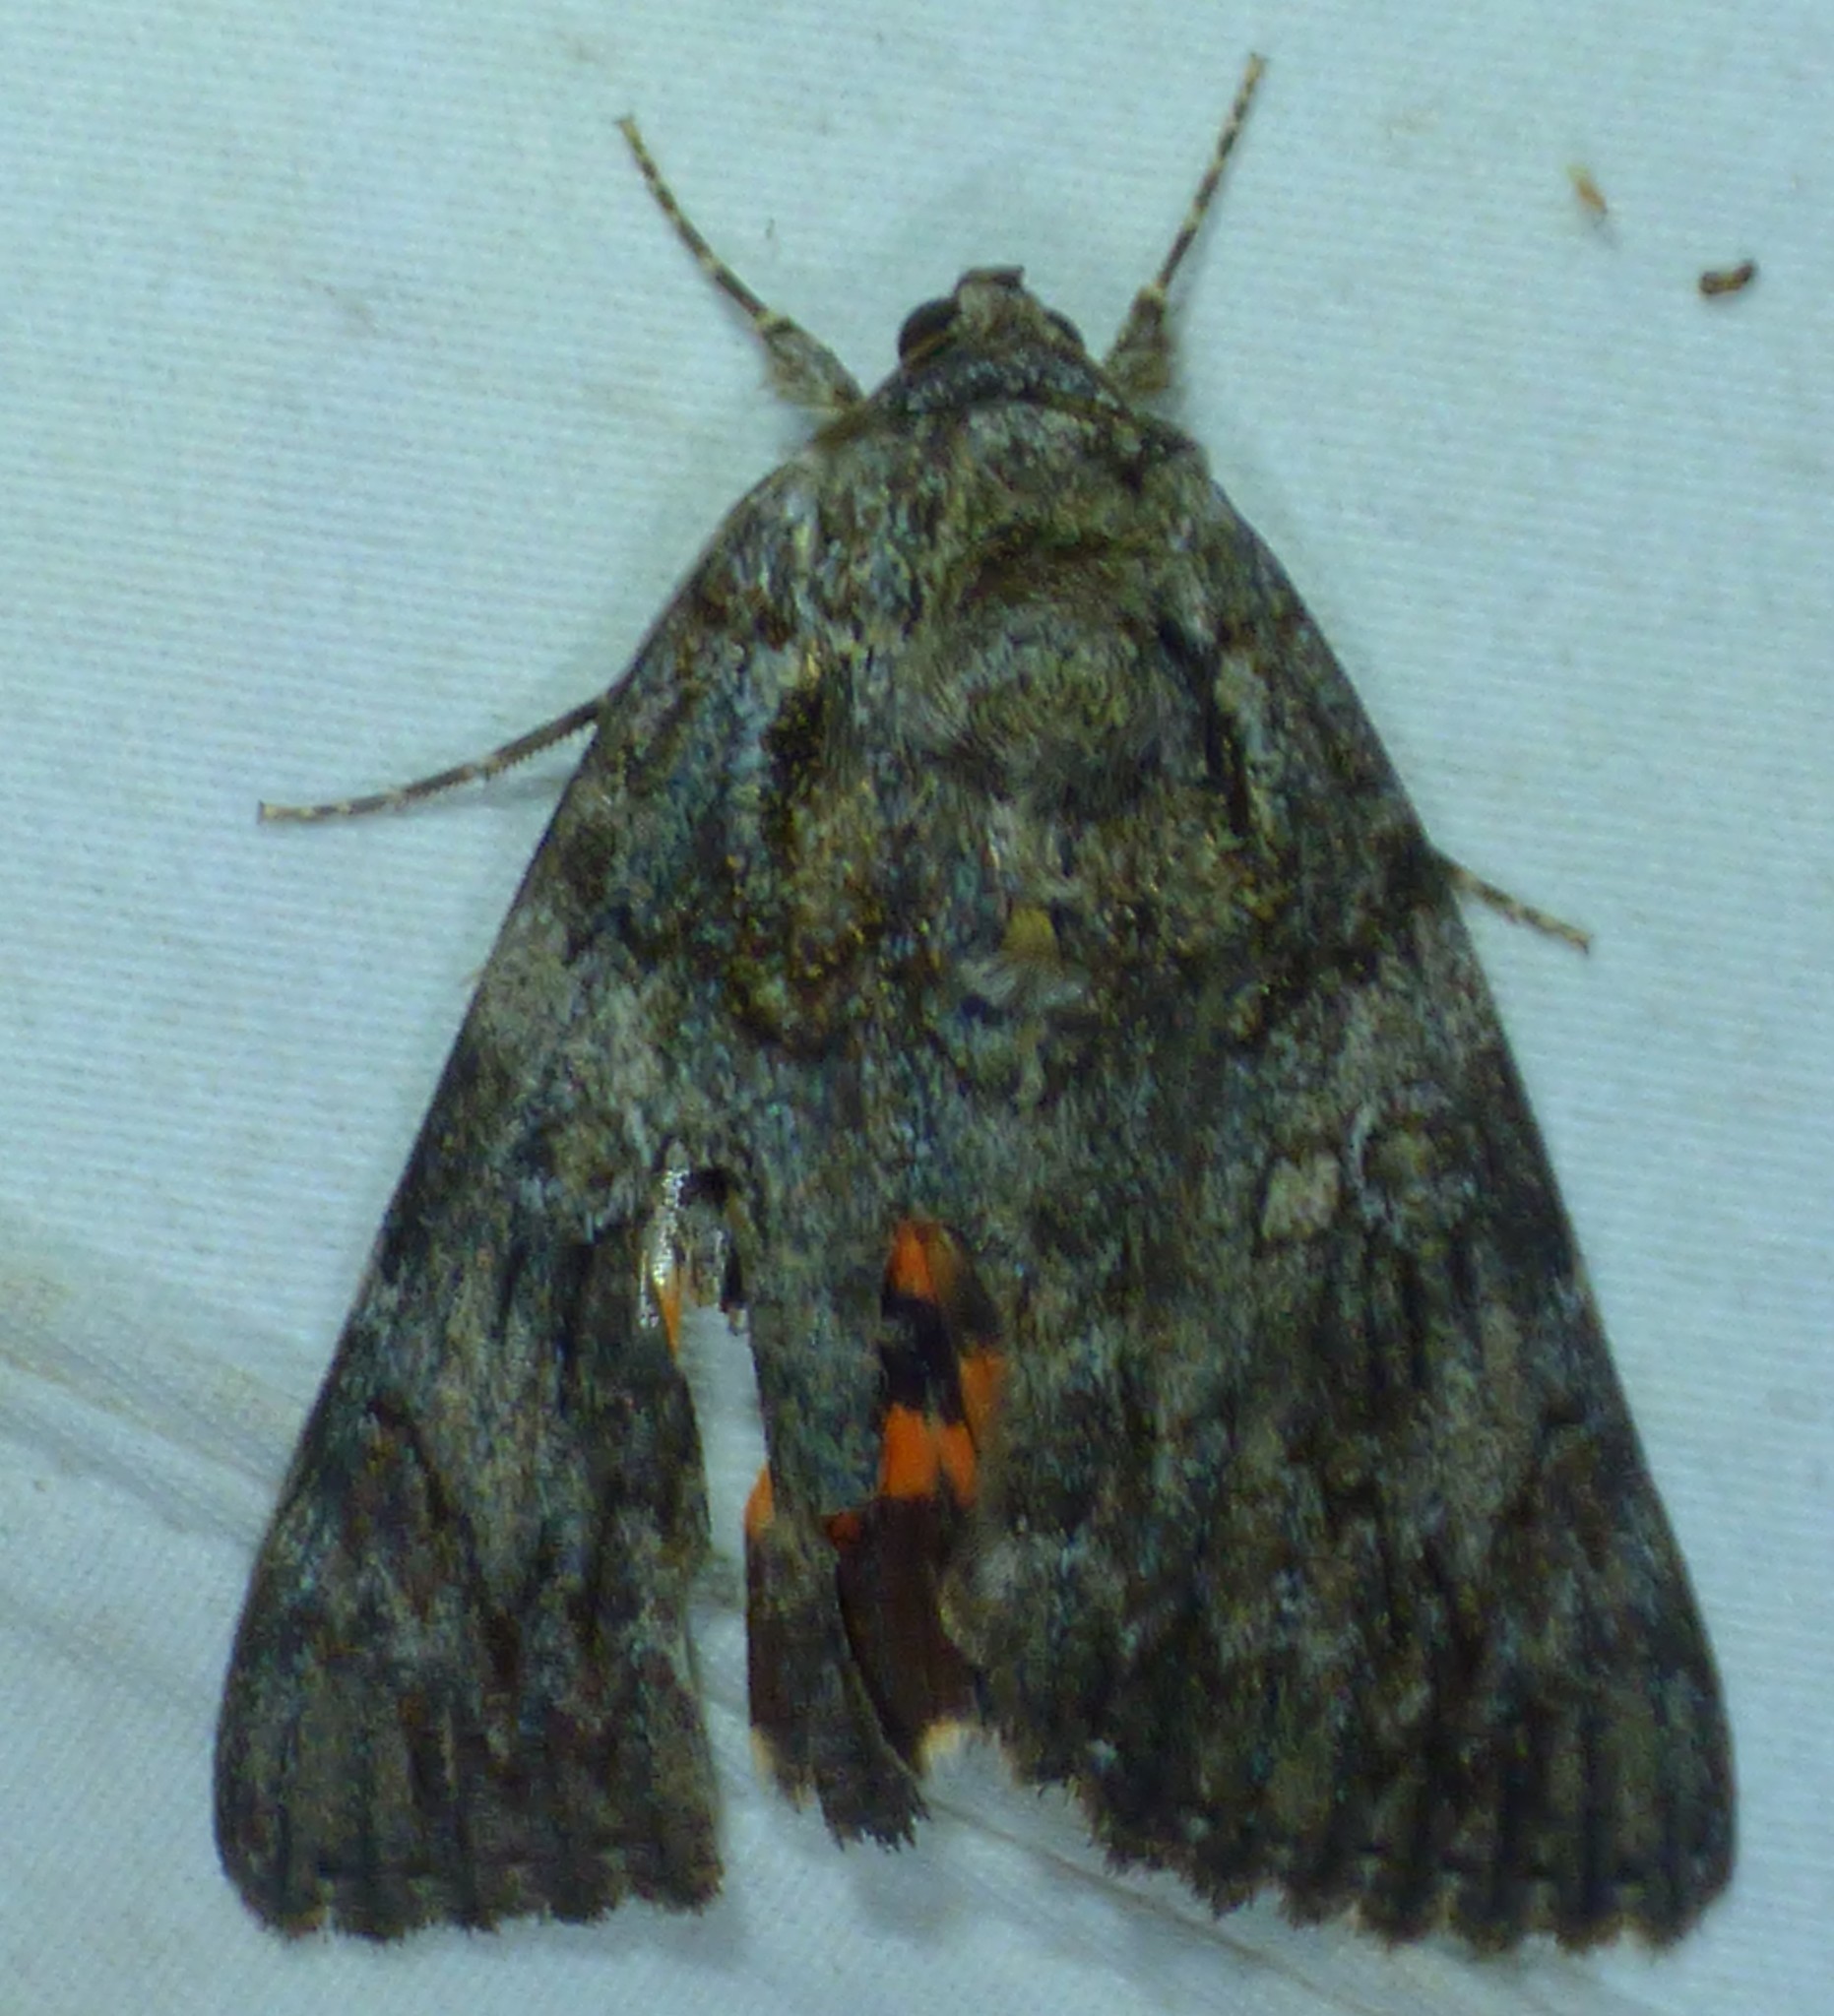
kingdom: Animalia
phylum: Arthropoda
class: Insecta
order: Lepidoptera
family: Erebidae
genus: Catocala
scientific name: Catocala ilia
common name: Ilia underwing
